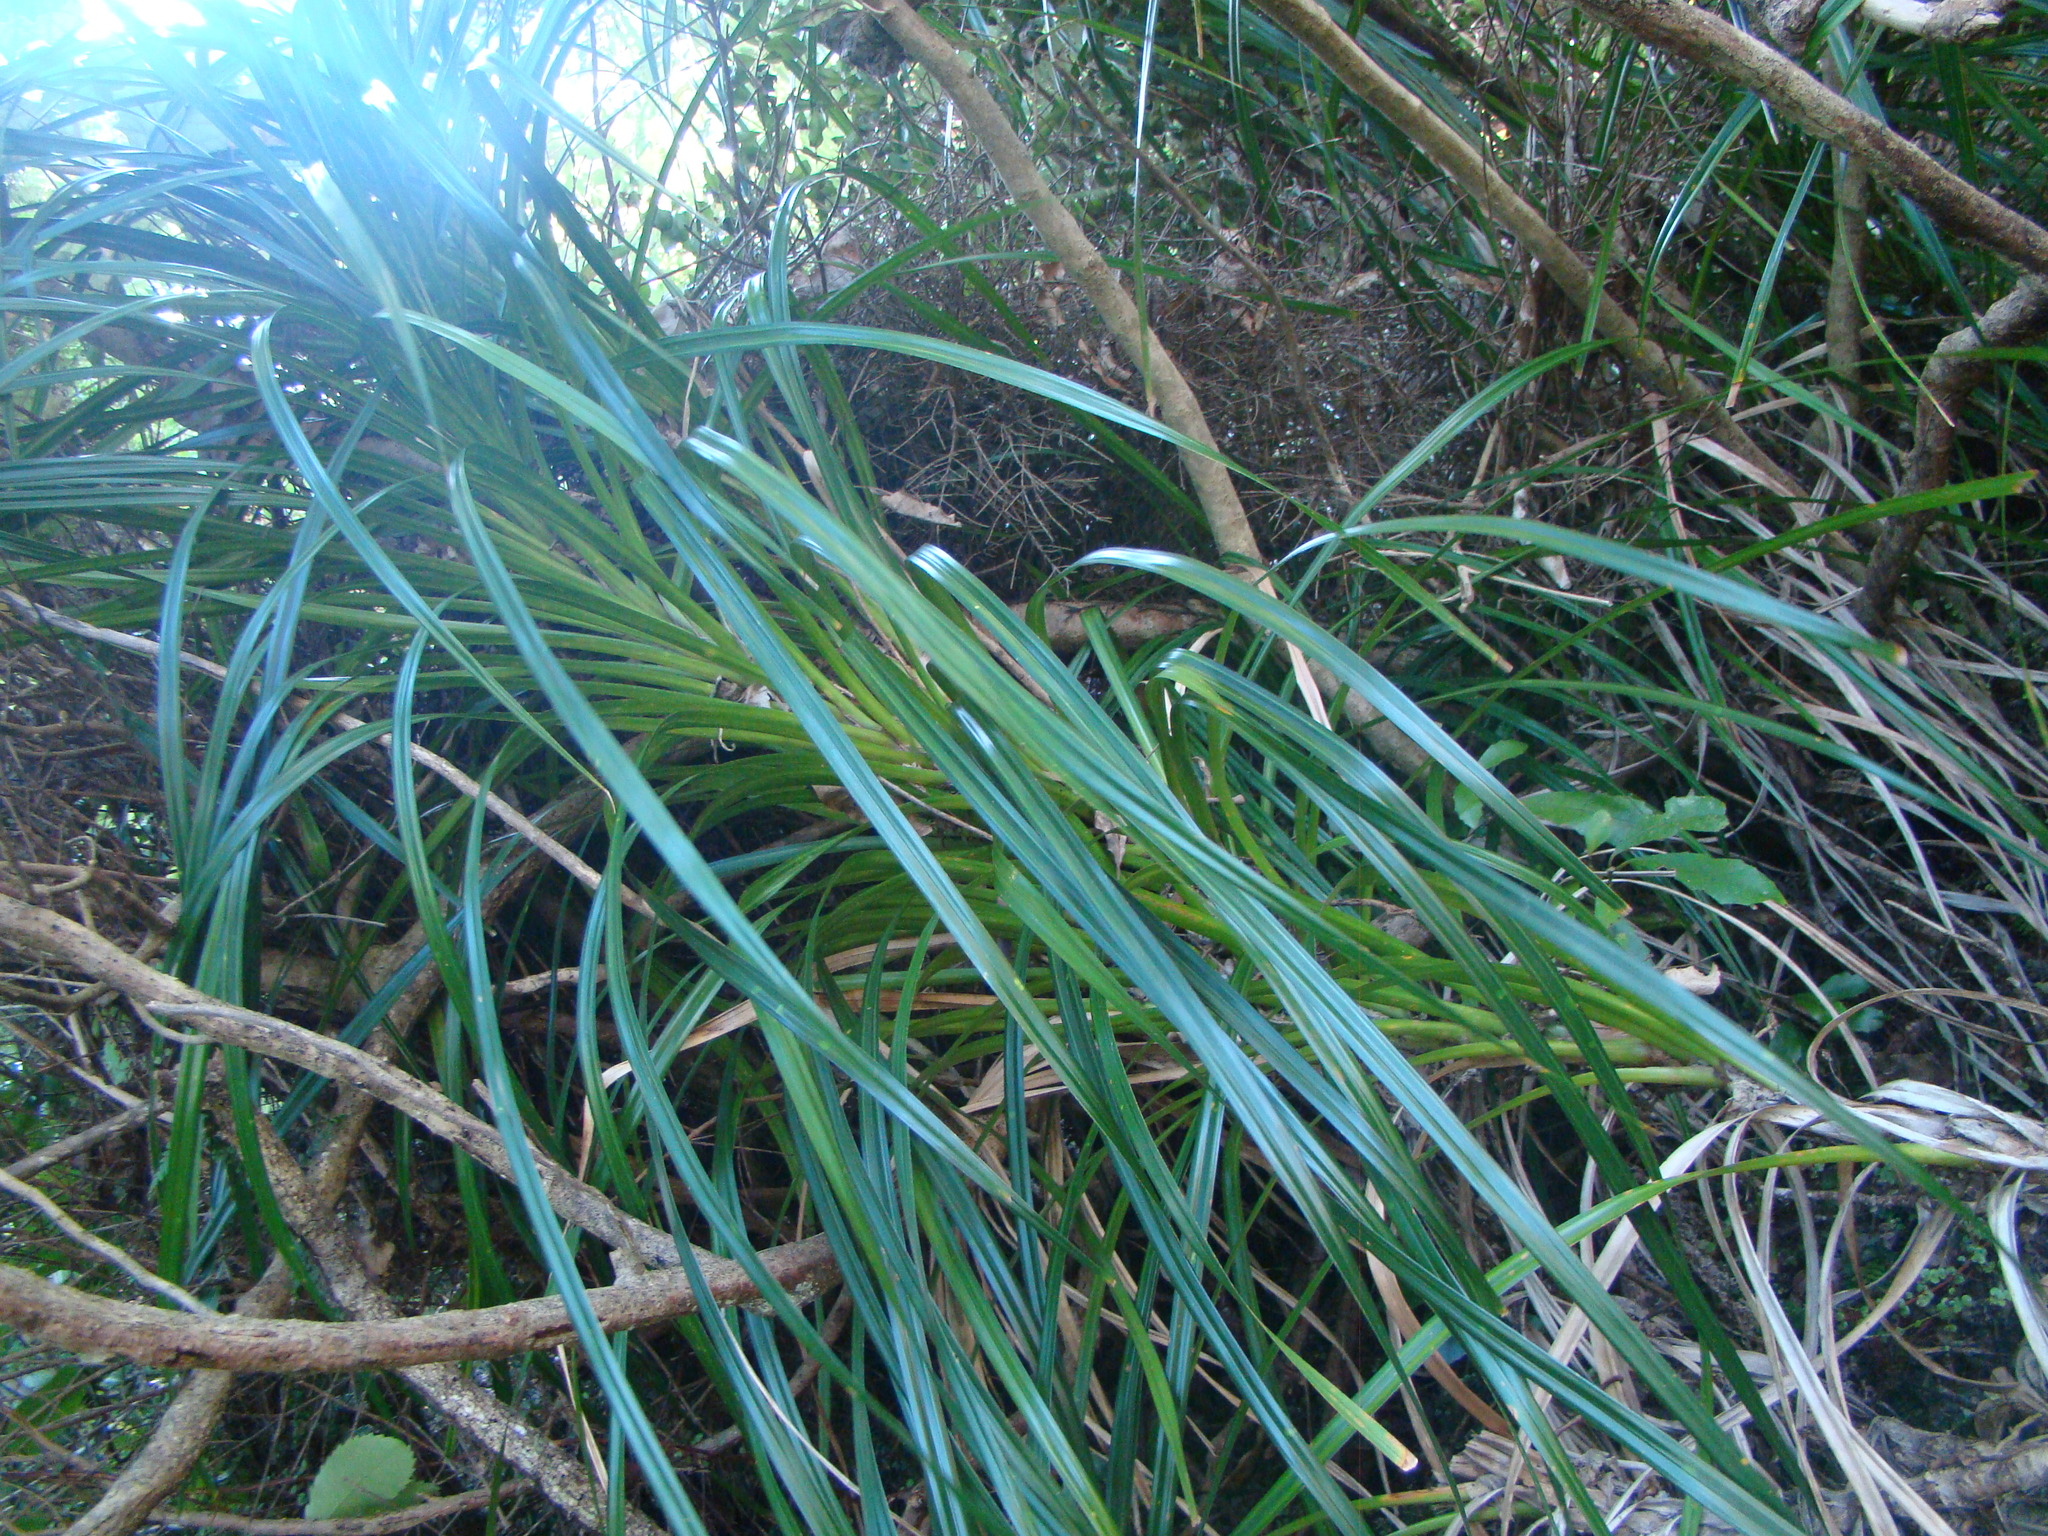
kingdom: Plantae
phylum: Tracheophyta
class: Liliopsida
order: Pandanales
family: Pandanaceae
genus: Freycinetia
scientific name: Freycinetia banksii
